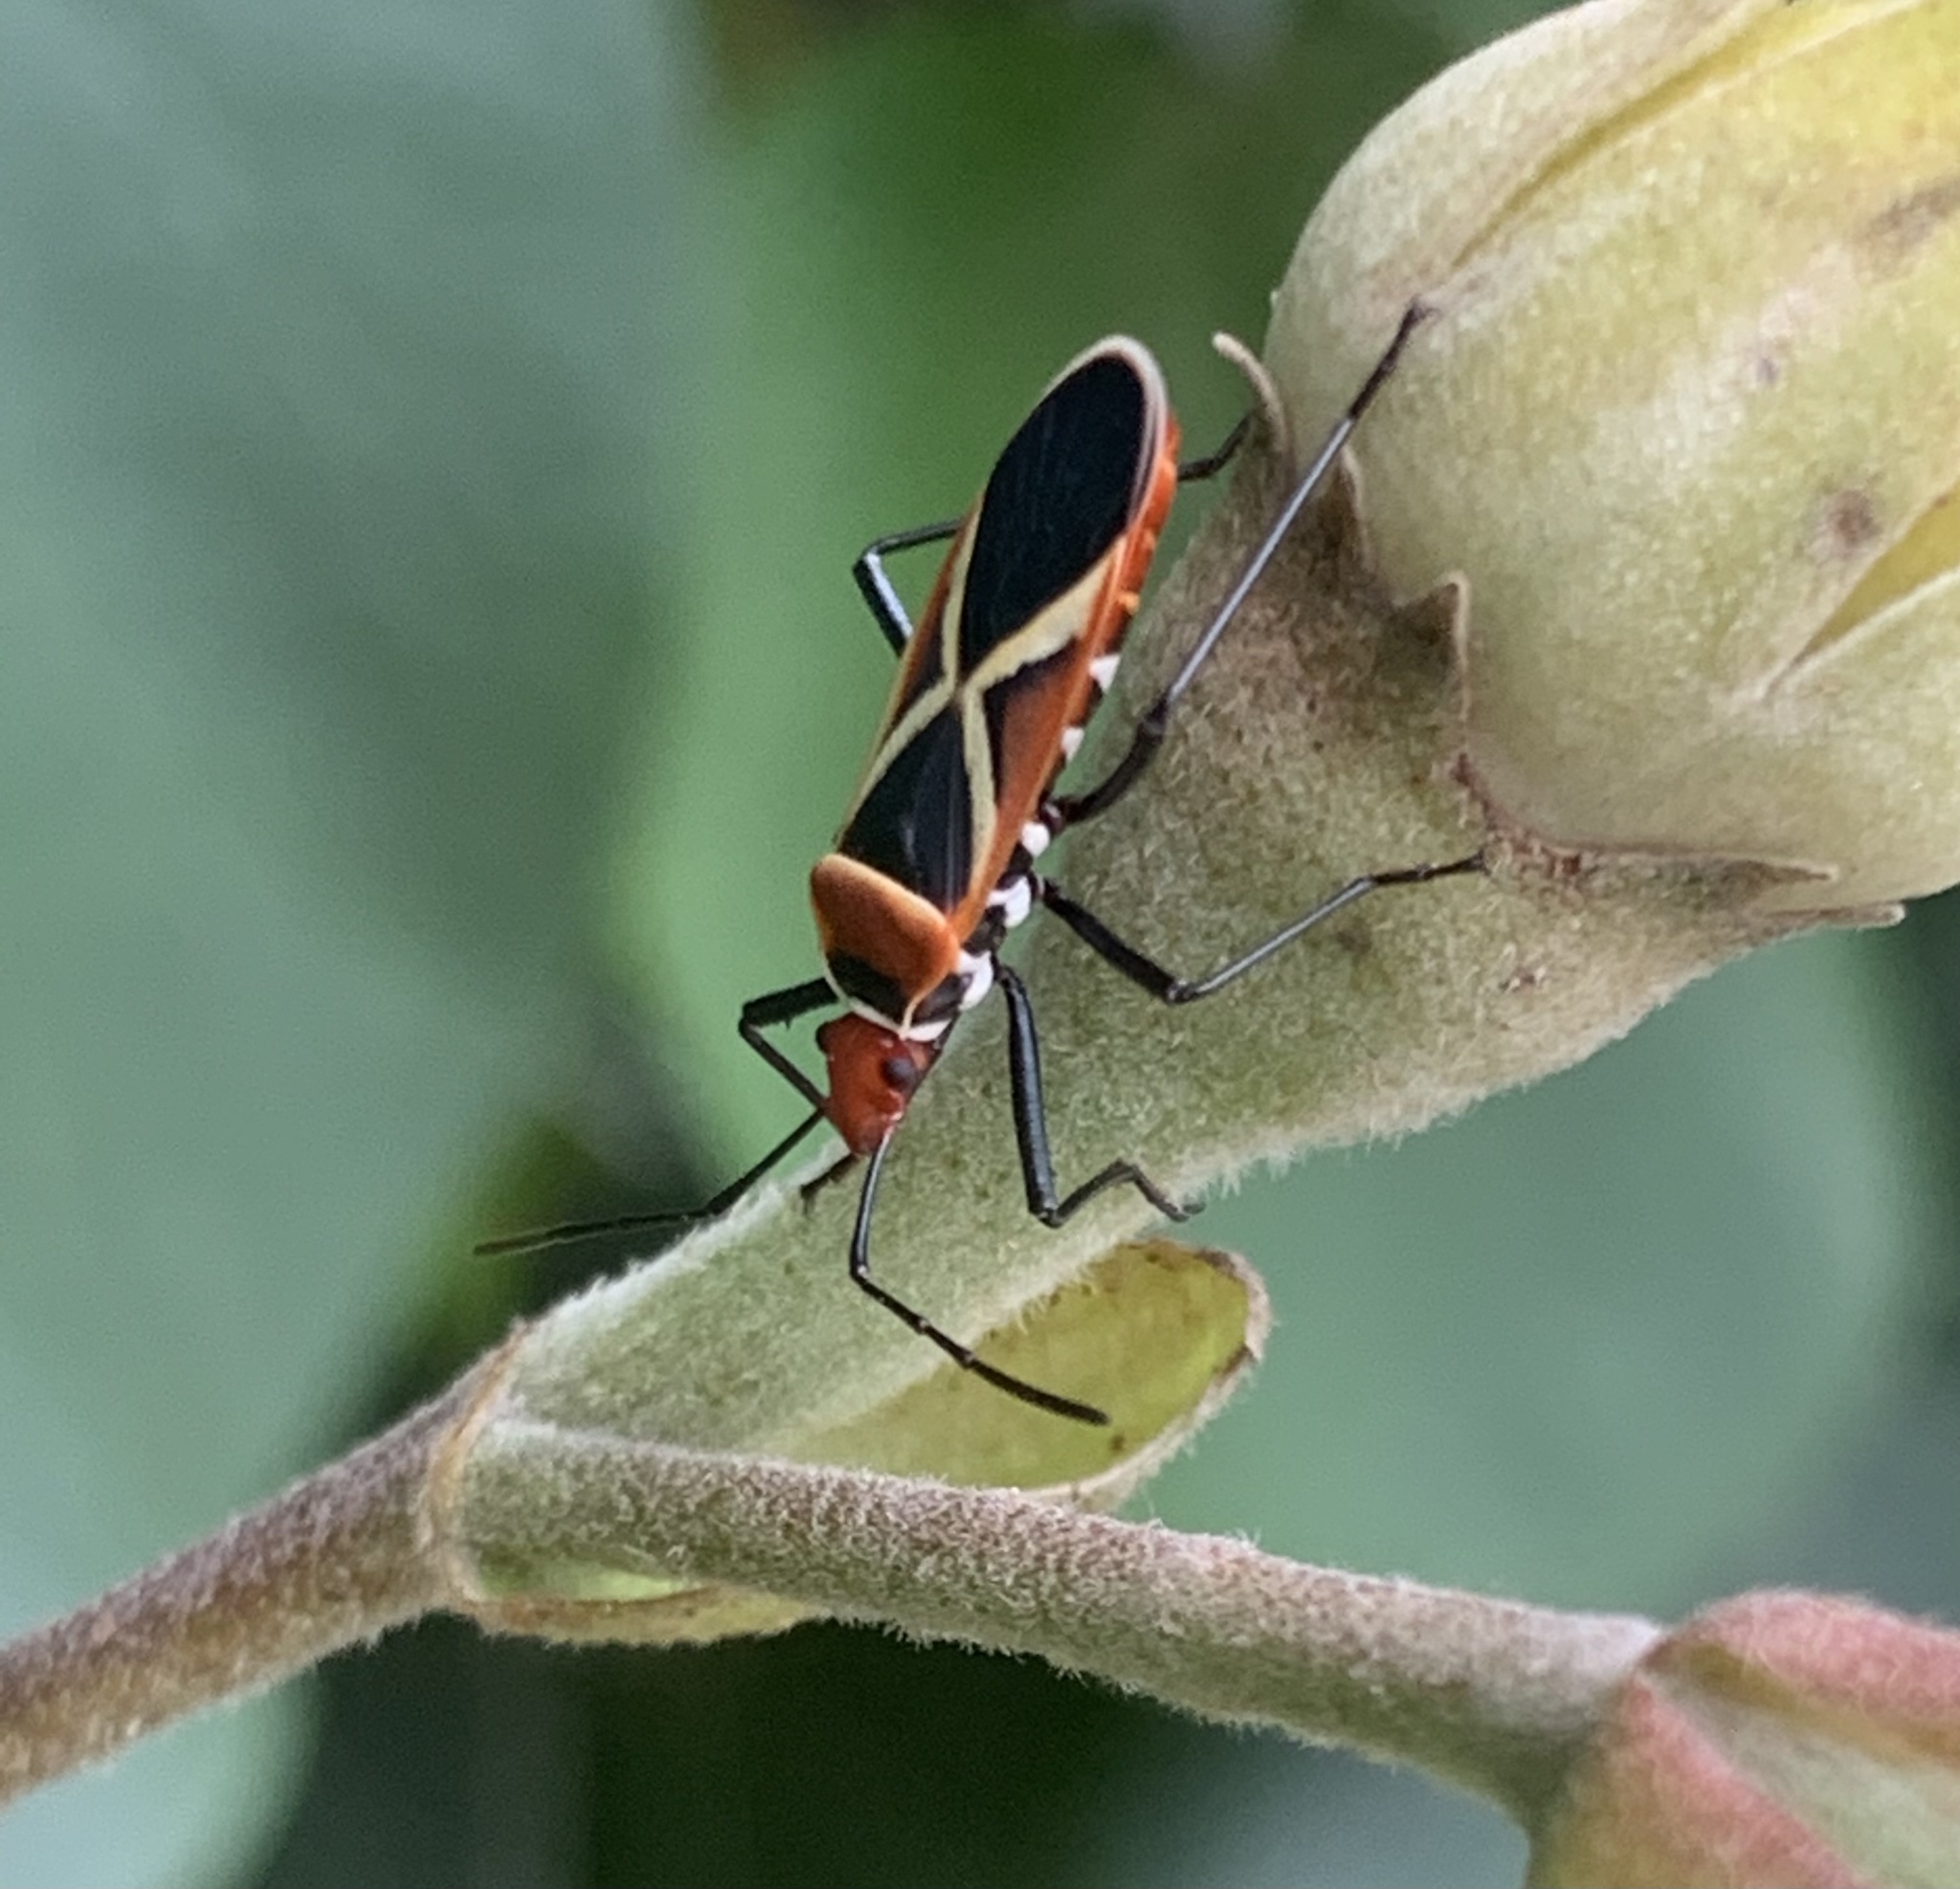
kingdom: Animalia
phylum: Arthropoda
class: Insecta
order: Hemiptera
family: Pyrrhocoridae
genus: Dysdercus
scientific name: Dysdercus decussatus
